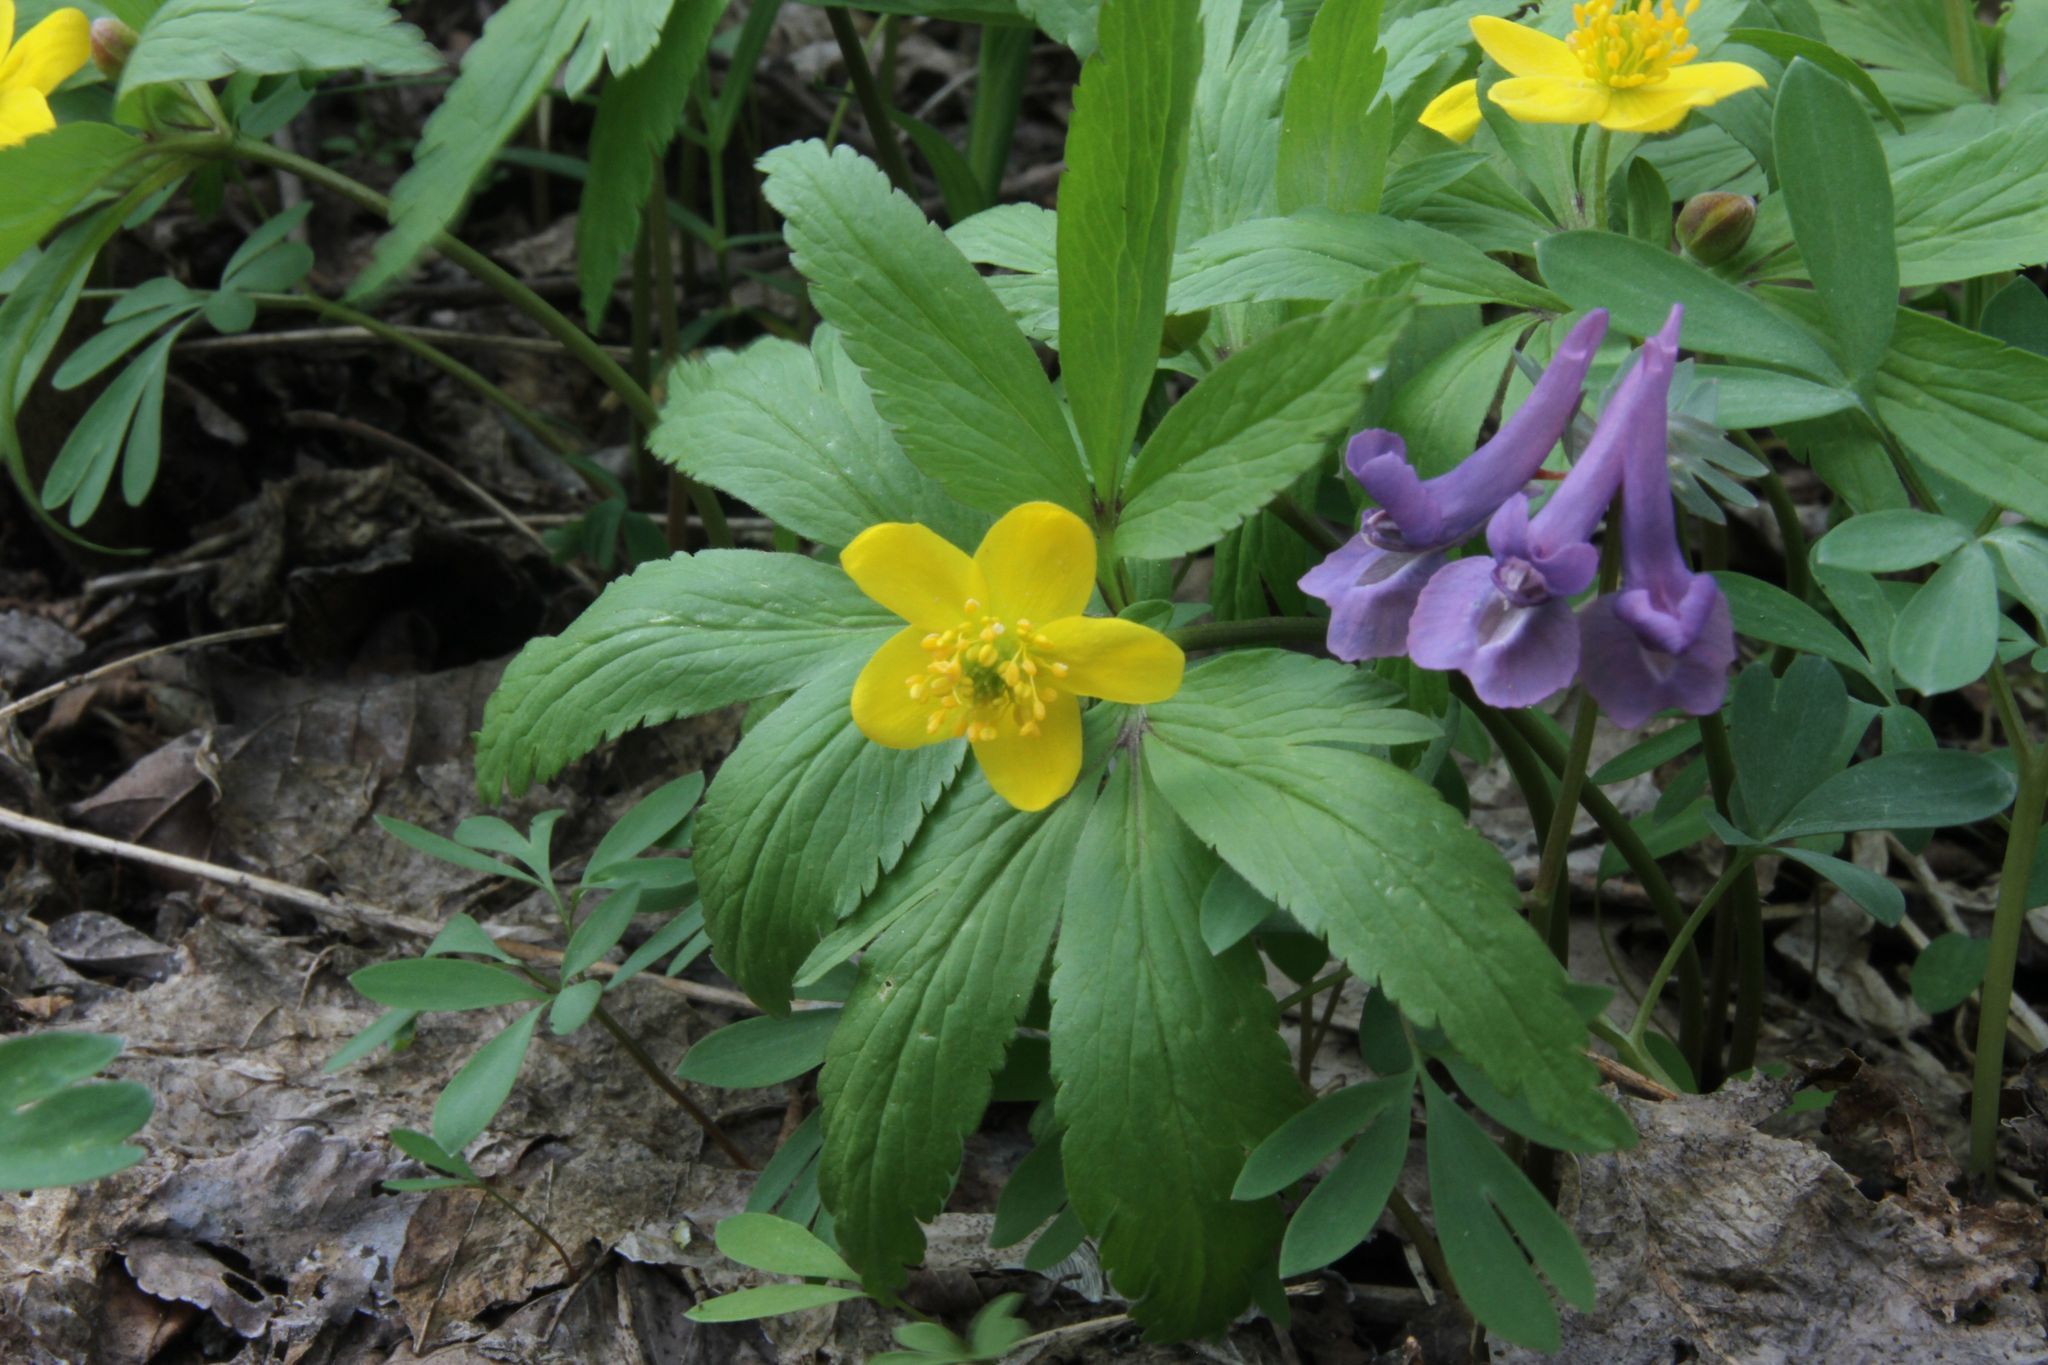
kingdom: Plantae
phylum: Tracheophyta
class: Magnoliopsida
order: Ranunculales
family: Ranunculaceae
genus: Anemone
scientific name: Anemone ranunculoides
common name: Yellow anemone
